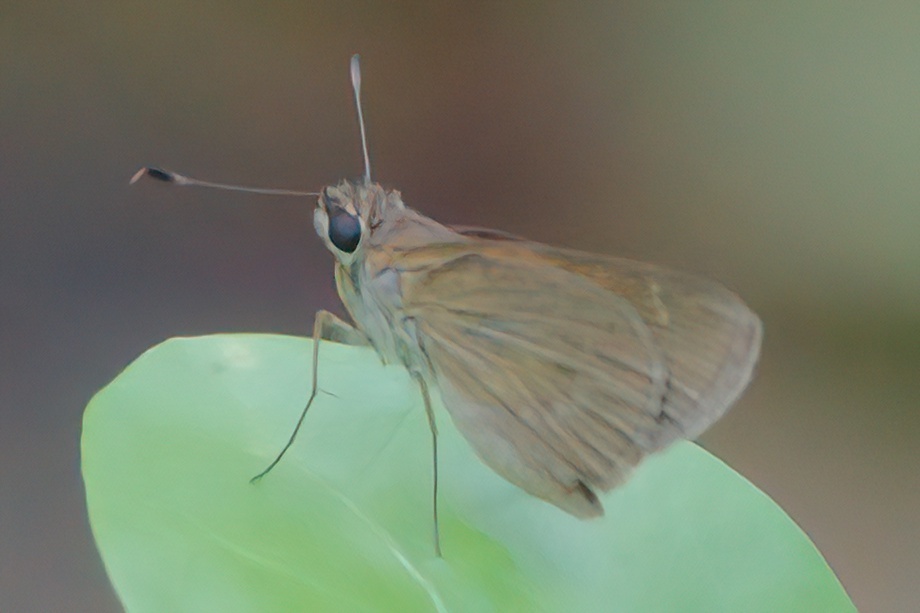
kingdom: Animalia
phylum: Arthropoda
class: Insecta
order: Lepidoptera
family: Hesperiidae
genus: Cymaenes
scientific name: Cymaenes tripunctus
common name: Dingy dotted skipper
